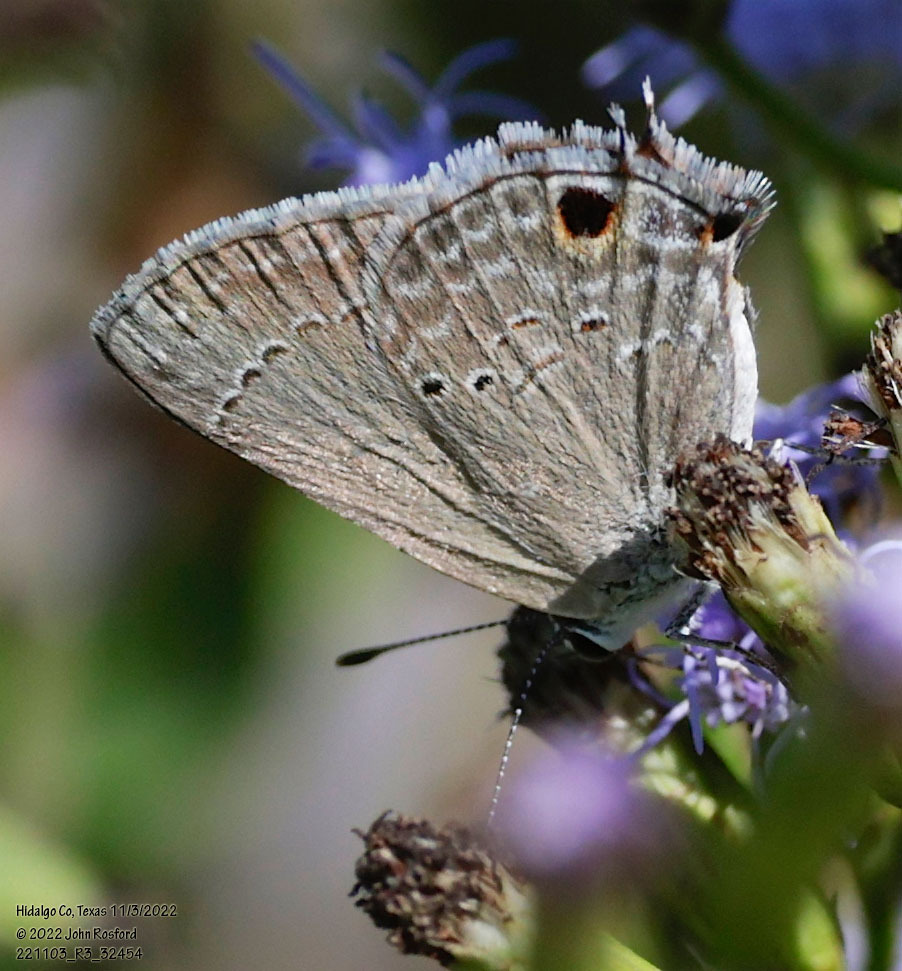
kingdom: Animalia
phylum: Arthropoda
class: Insecta
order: Lepidoptera
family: Lycaenidae
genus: Callicista
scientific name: Callicista columella
